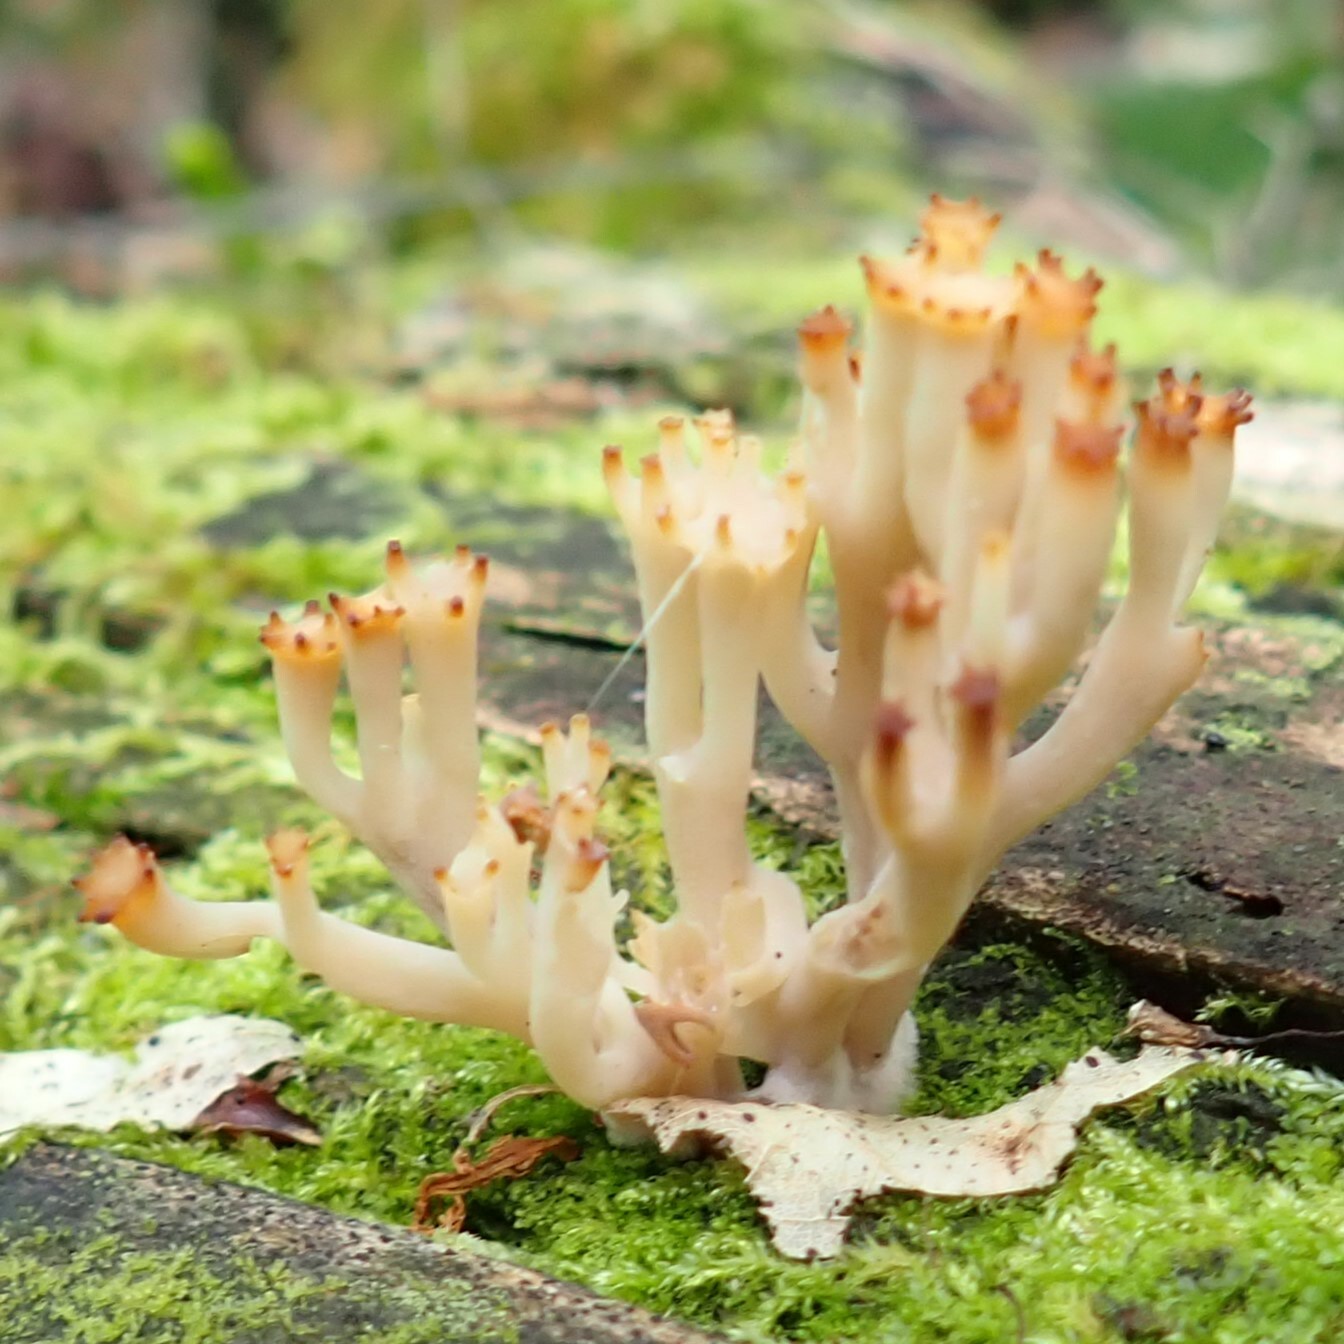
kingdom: Fungi
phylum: Basidiomycota
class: Agaricomycetes
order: Russulales
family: Auriscalpiaceae
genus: Artomyces
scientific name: Artomyces pyxidatus
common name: Crown-tipped coral fungus
